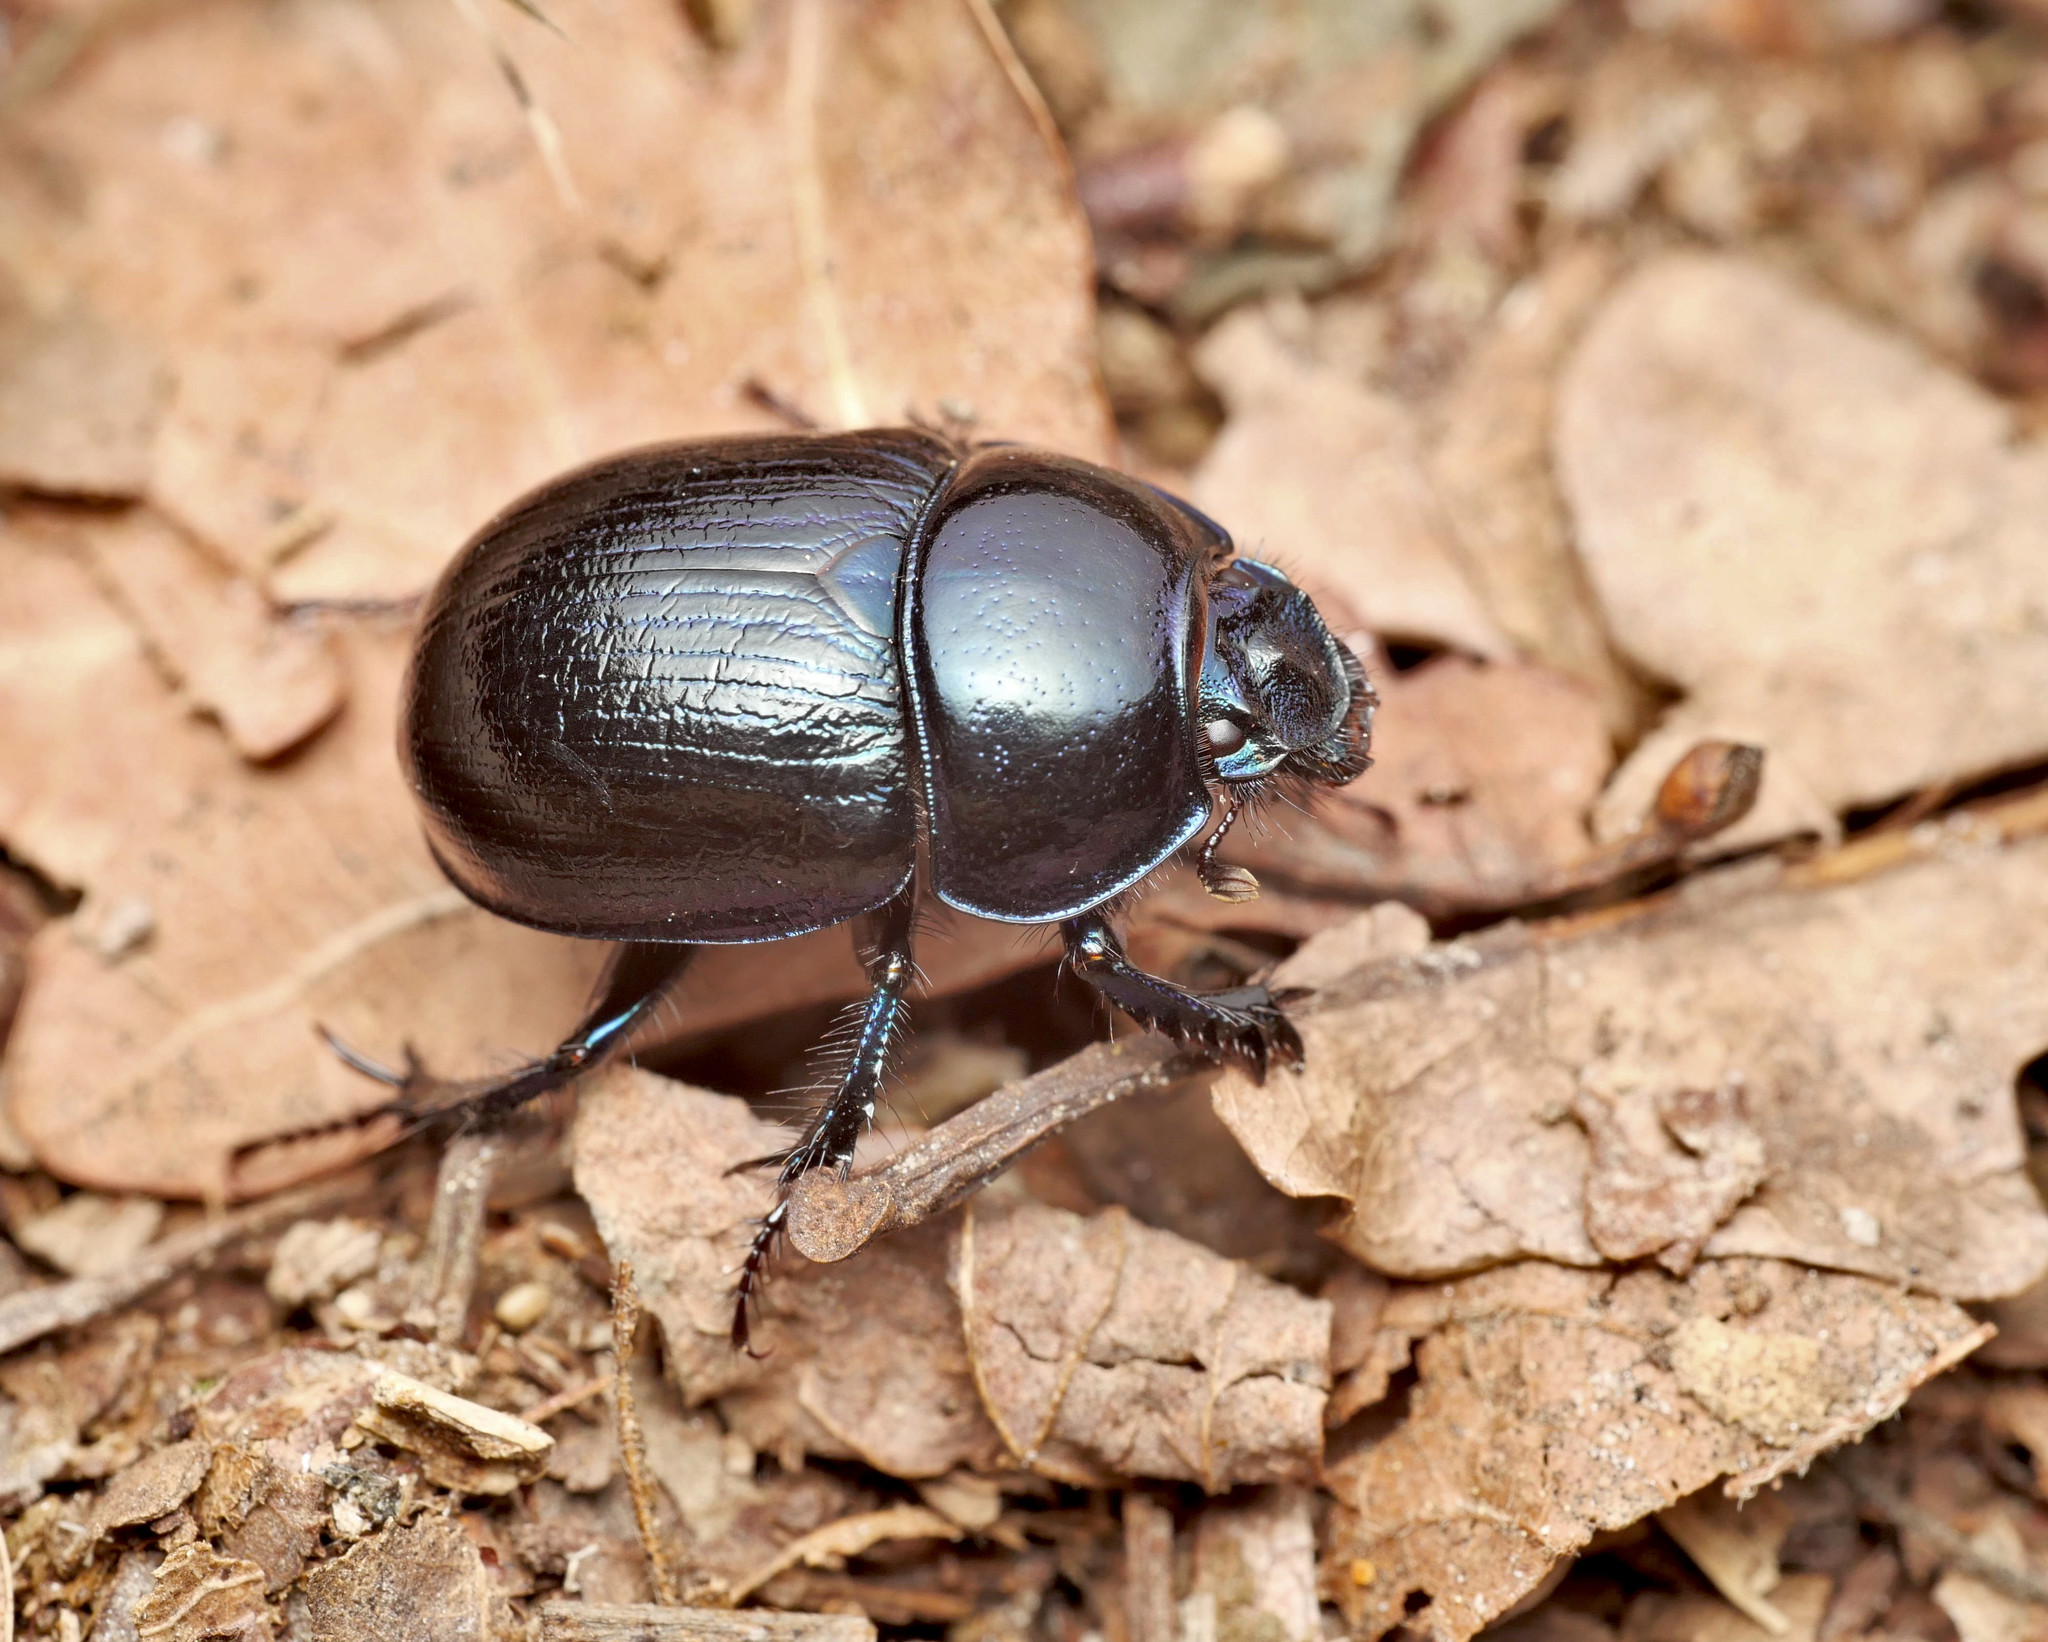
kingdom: Animalia
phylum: Arthropoda
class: Insecta
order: Coleoptera
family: Geotrupidae
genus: Anoplotrupes
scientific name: Anoplotrupes stercorosus
